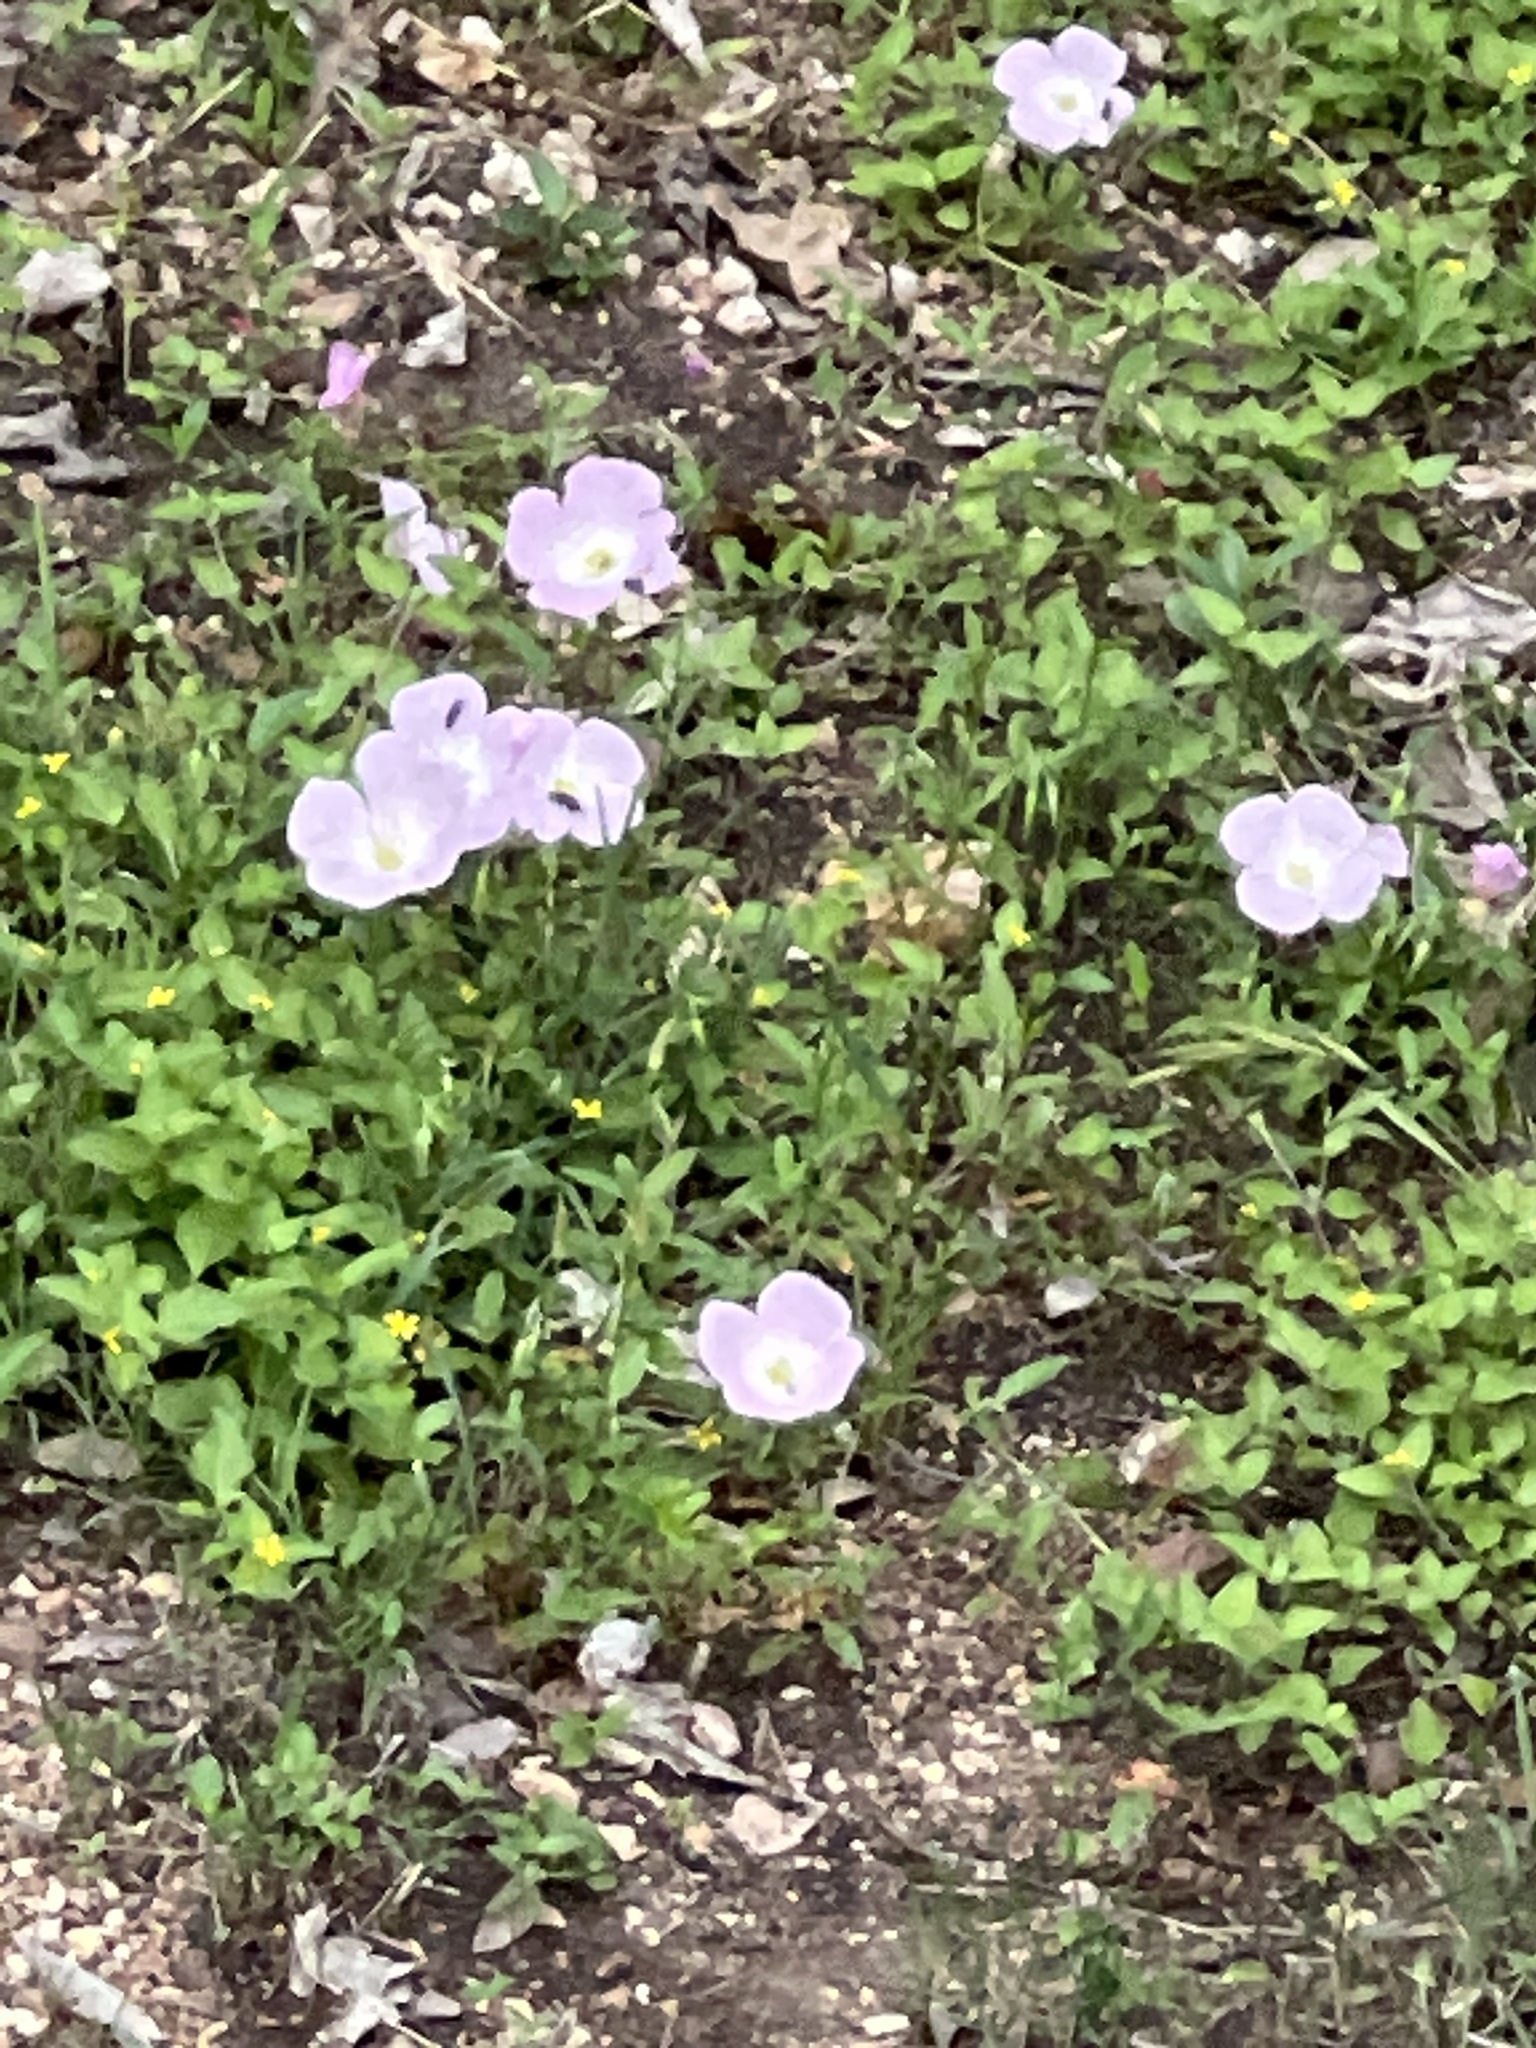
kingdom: Plantae
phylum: Tracheophyta
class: Magnoliopsida
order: Myrtales
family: Onagraceae
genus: Oenothera
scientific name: Oenothera speciosa
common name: White evening-primrose
